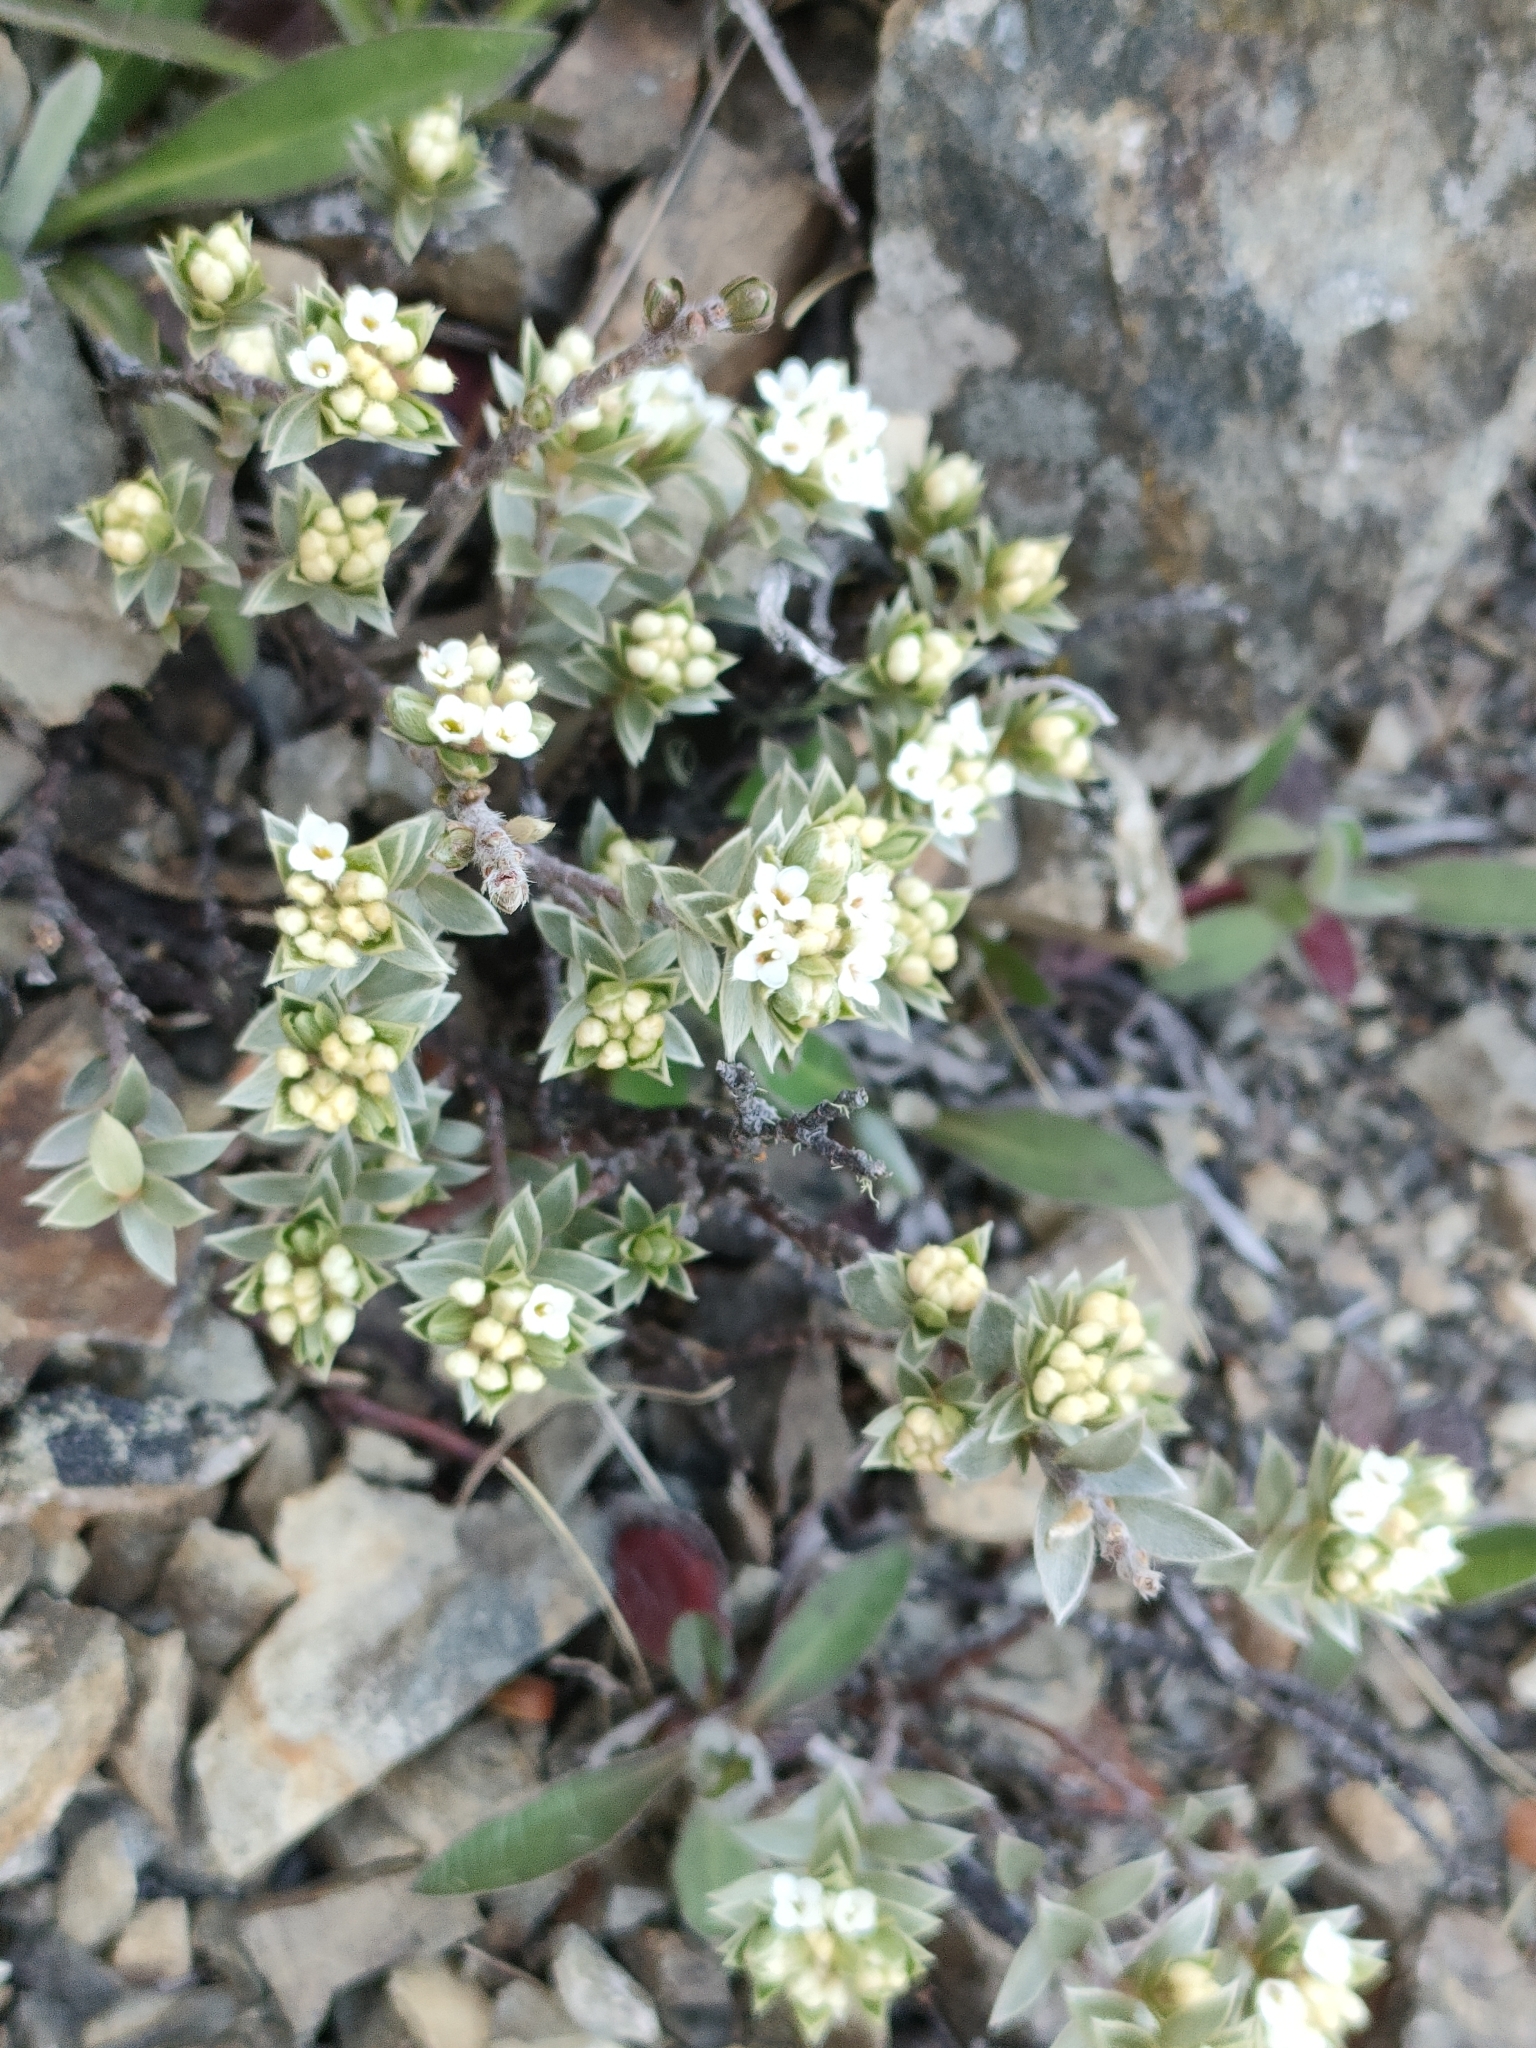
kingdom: Plantae
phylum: Tracheophyta
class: Magnoliopsida
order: Malvales
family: Thymelaeaceae
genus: Pimelea
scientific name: Pimelea concinna
